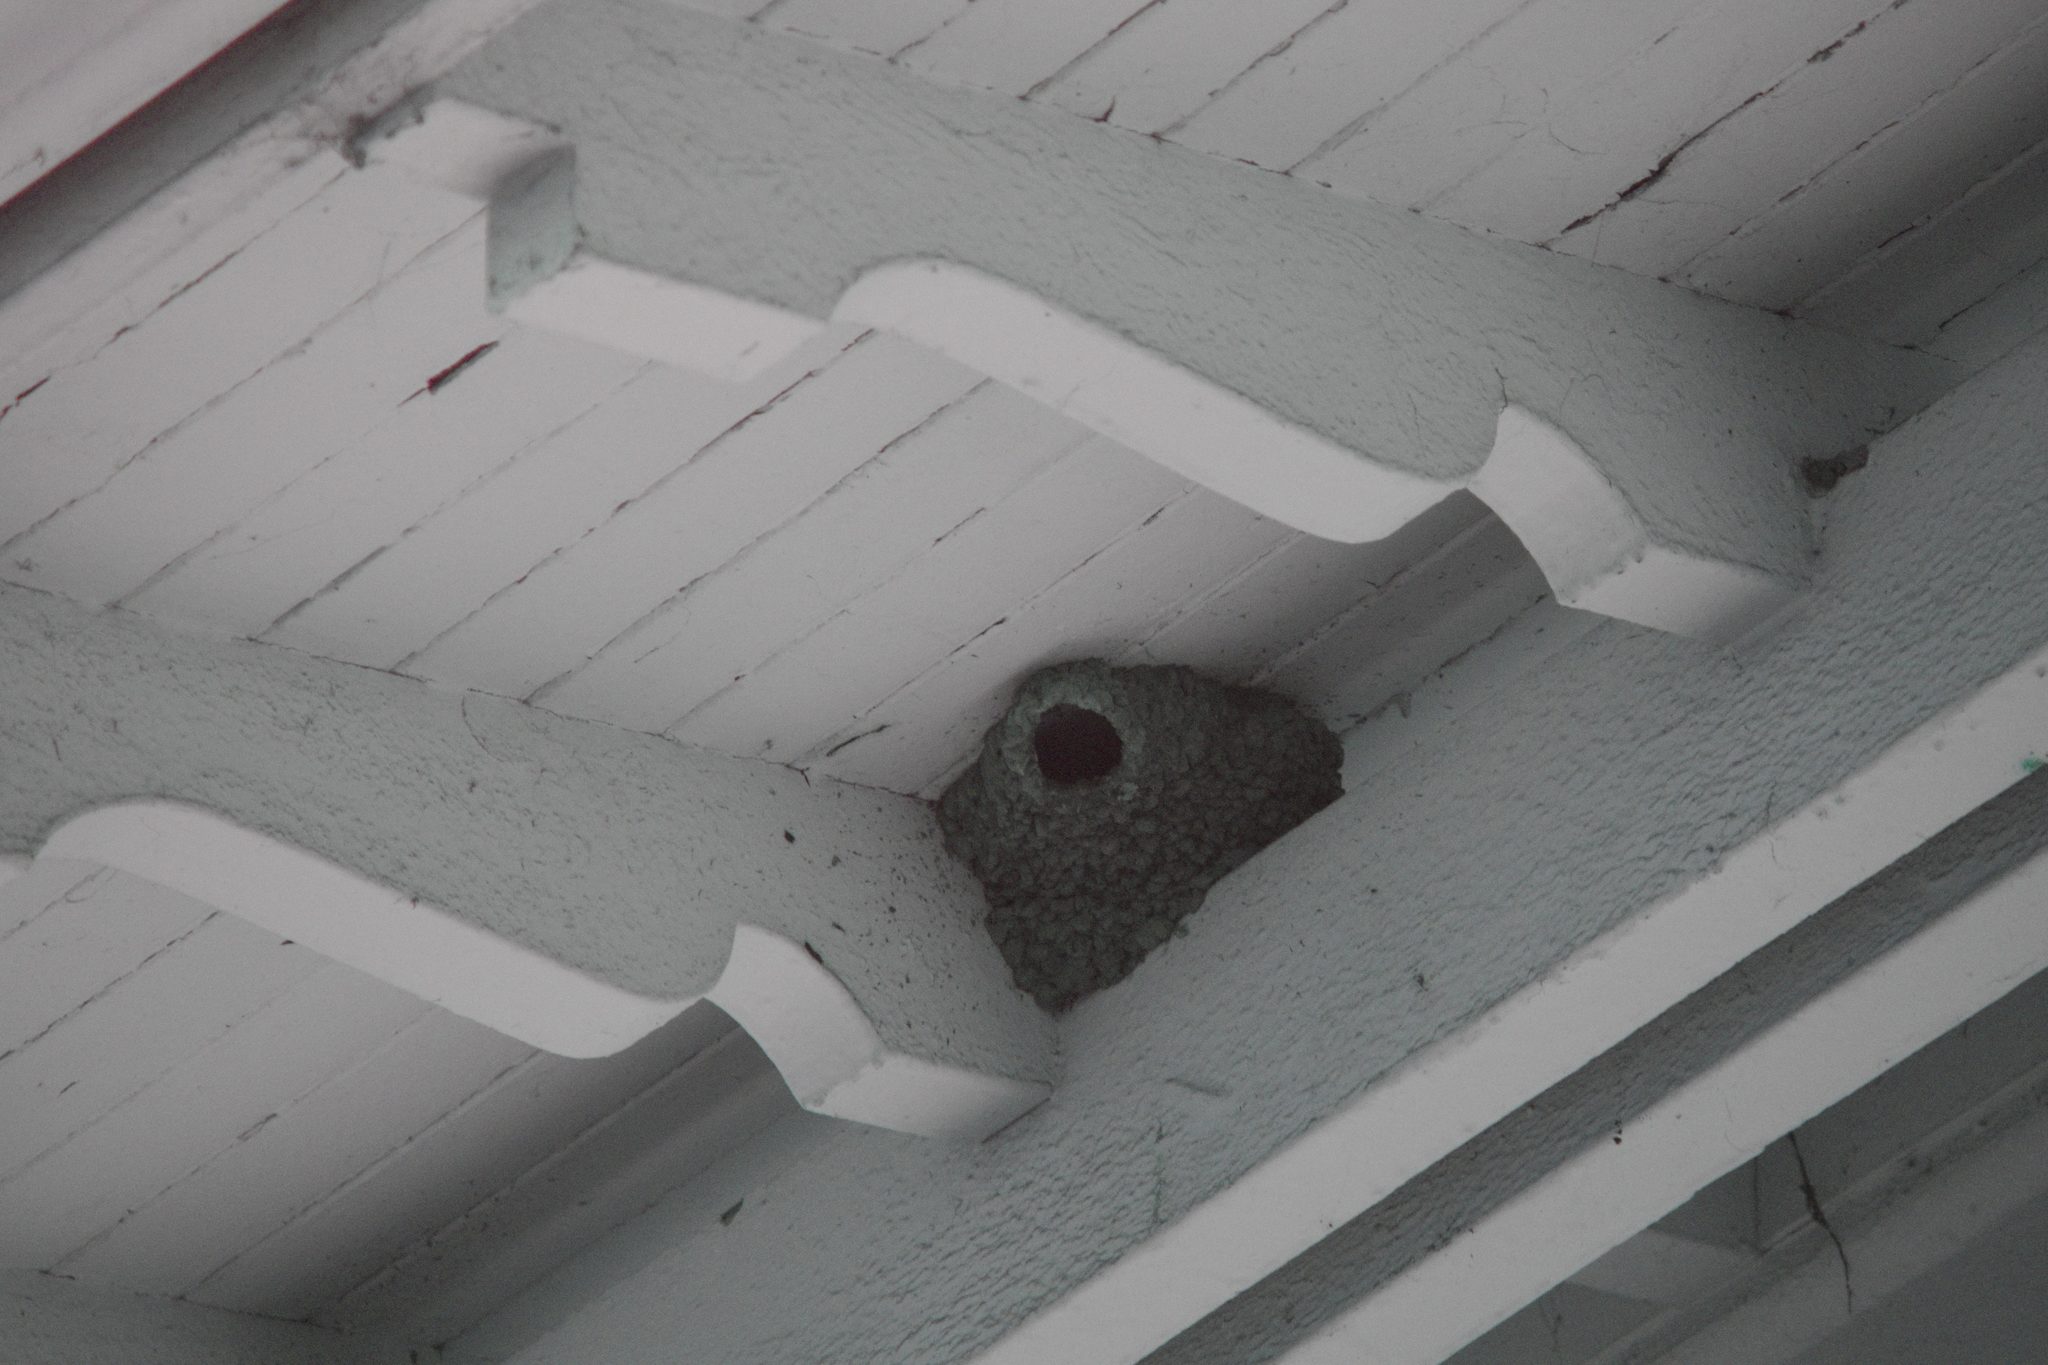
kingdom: Animalia
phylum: Chordata
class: Aves
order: Passeriformes
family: Hirundinidae
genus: Petrochelidon
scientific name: Petrochelidon pyrrhonota
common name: American cliff swallow
